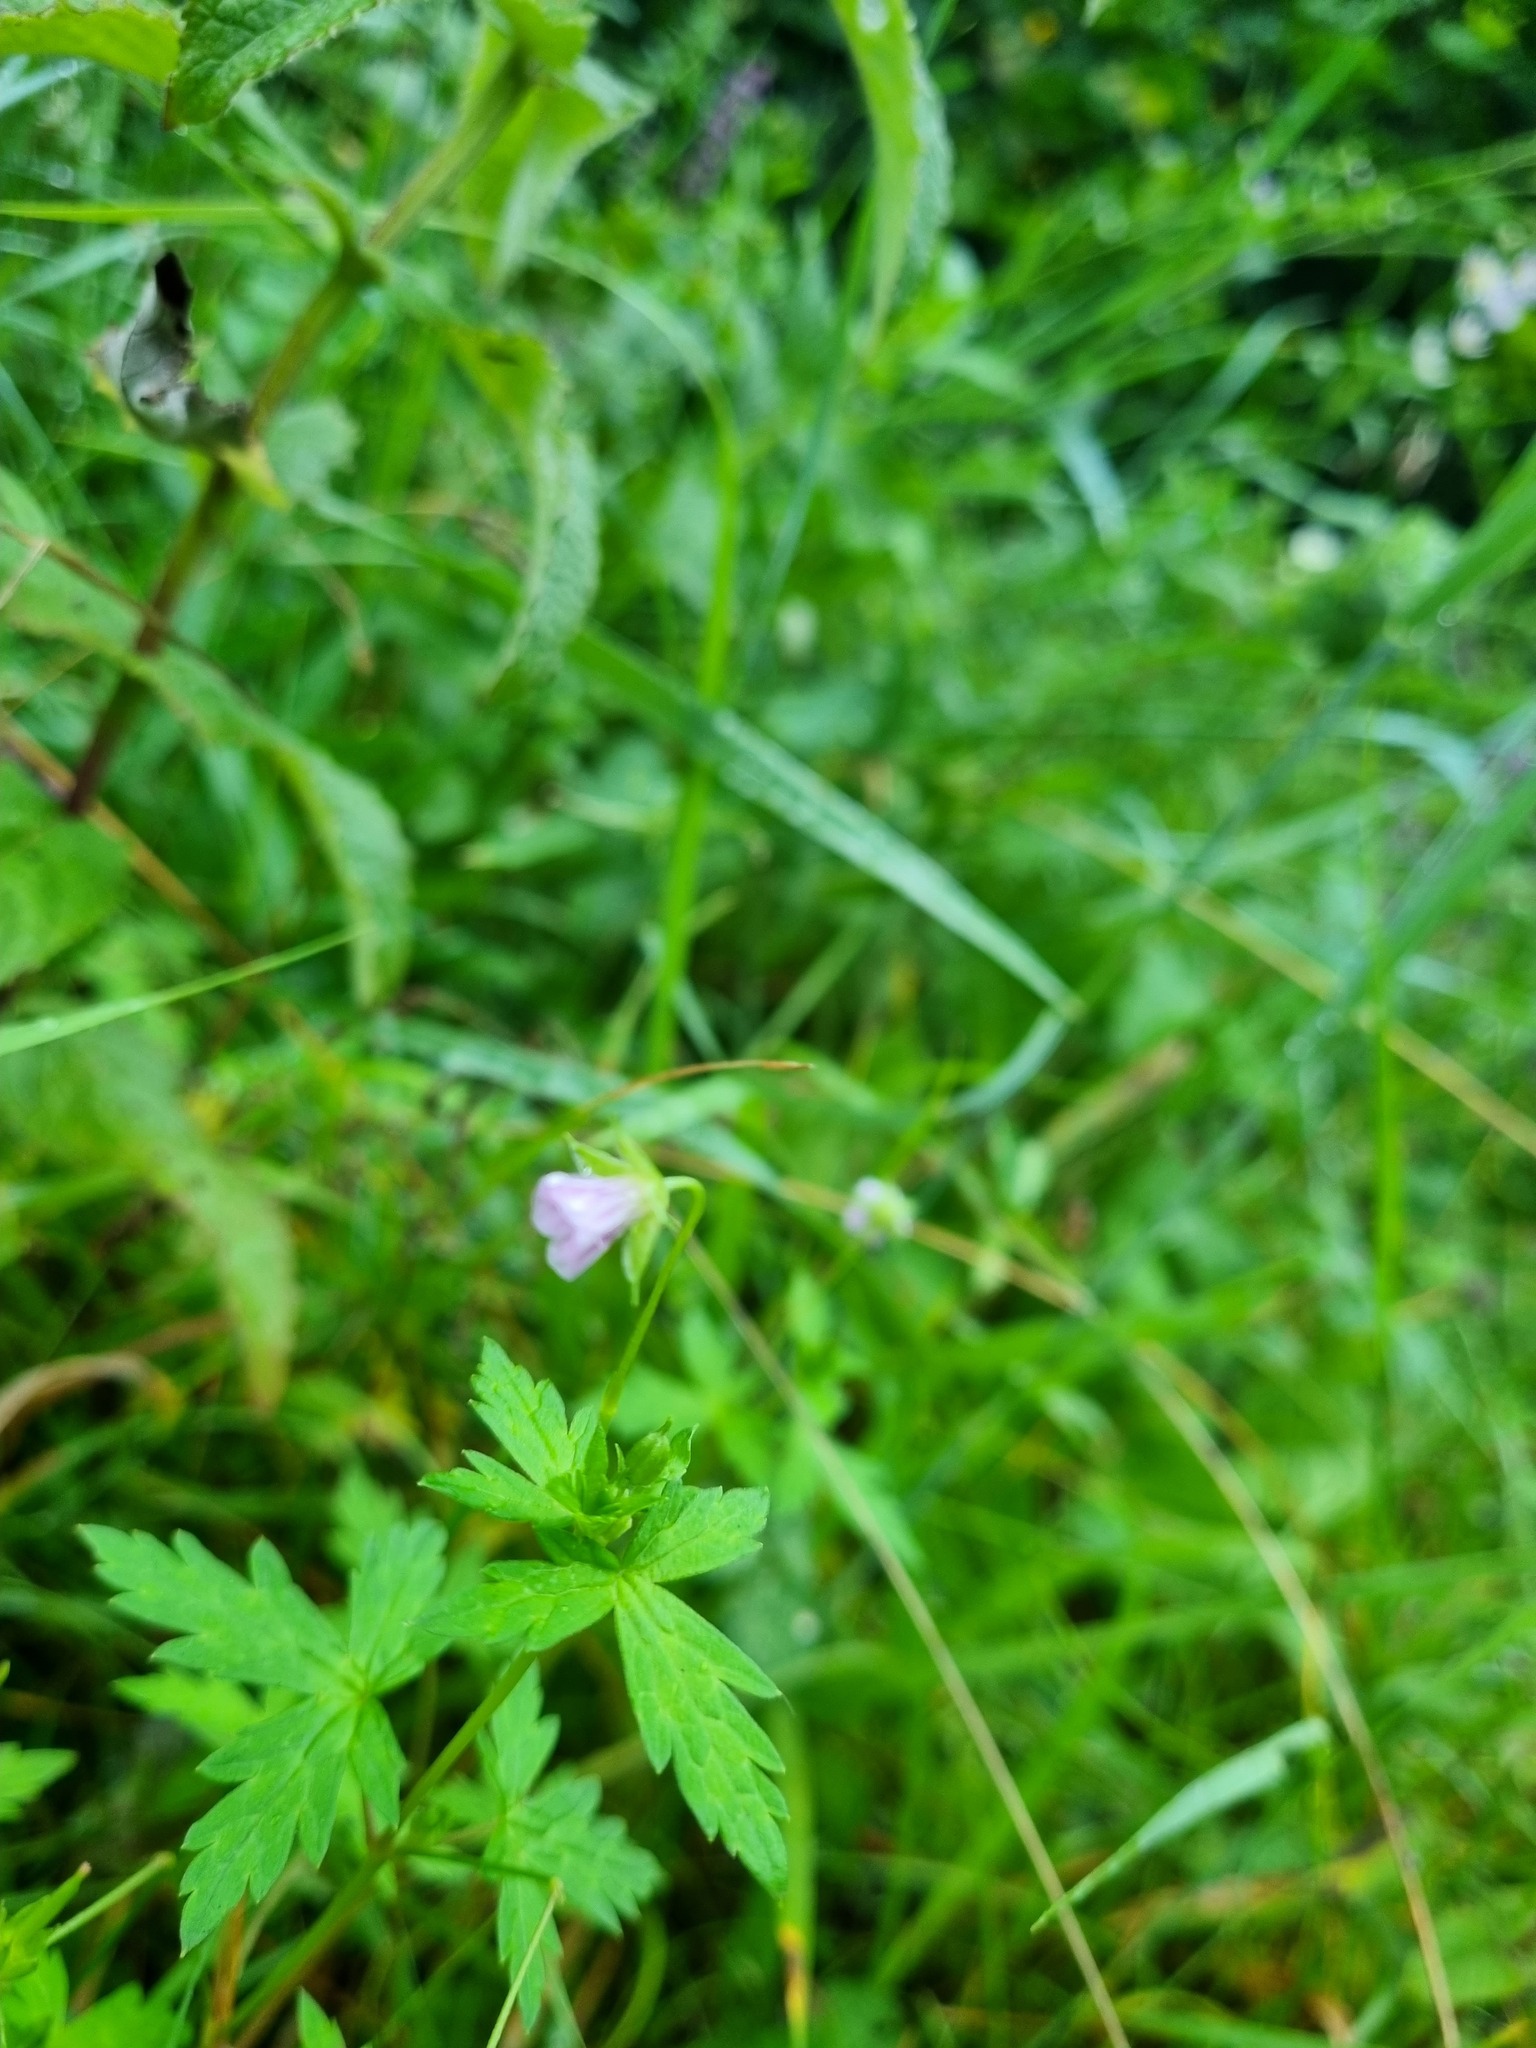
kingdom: Plantae
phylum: Tracheophyta
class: Magnoliopsida
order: Geraniales
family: Geraniaceae
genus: Geranium
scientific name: Geranium sibiricum
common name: Siberian crane's-bill
